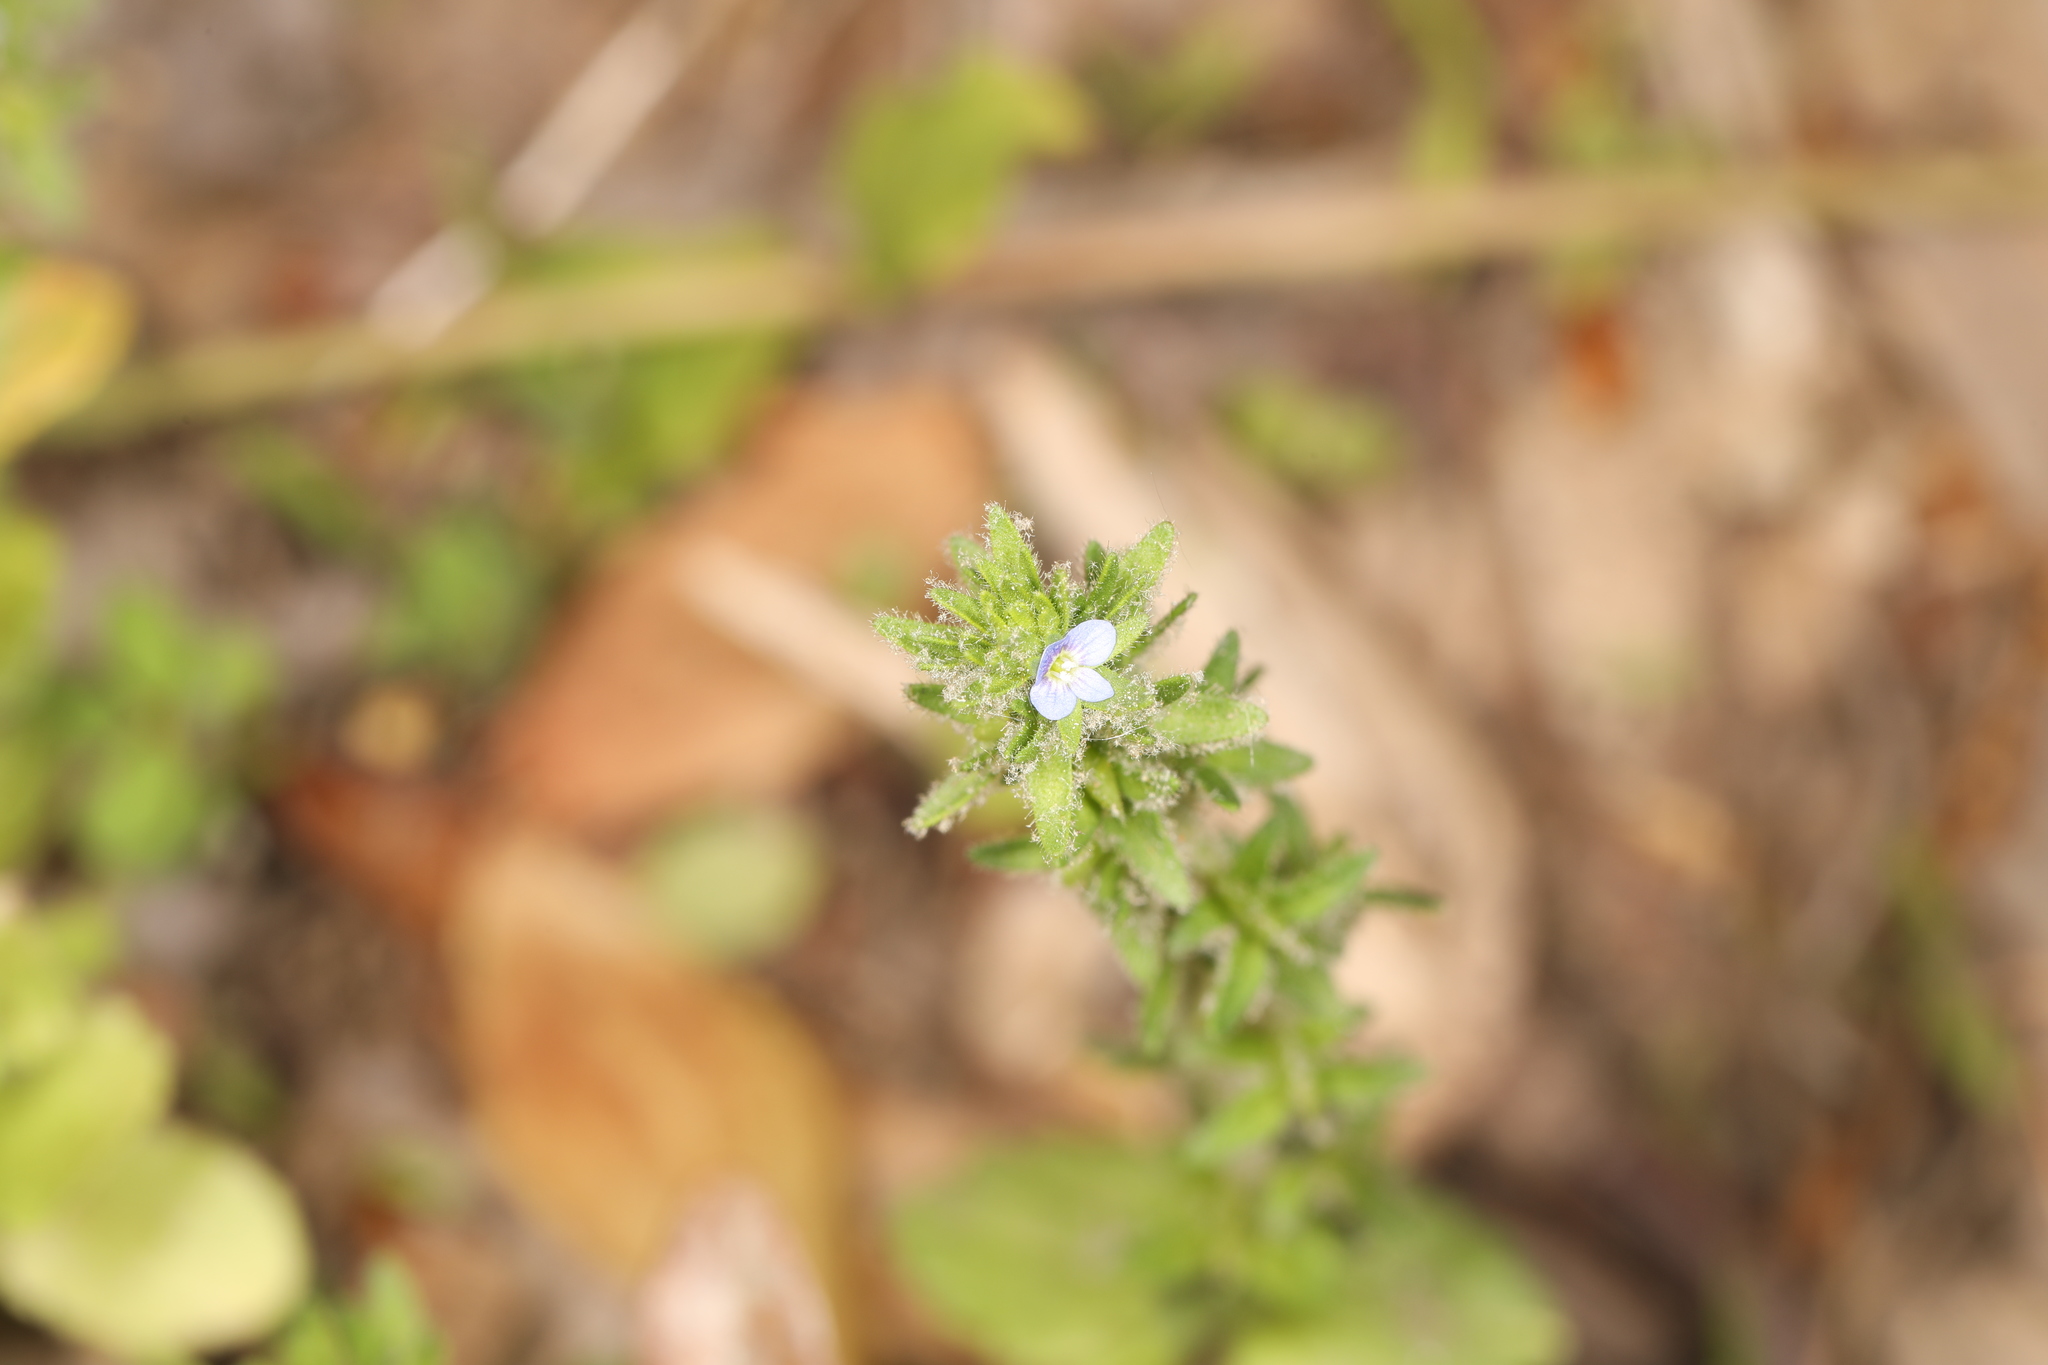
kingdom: Plantae
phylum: Tracheophyta
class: Magnoliopsida
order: Lamiales
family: Plantaginaceae
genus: Veronica
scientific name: Veronica arvensis
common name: Corn speedwell
